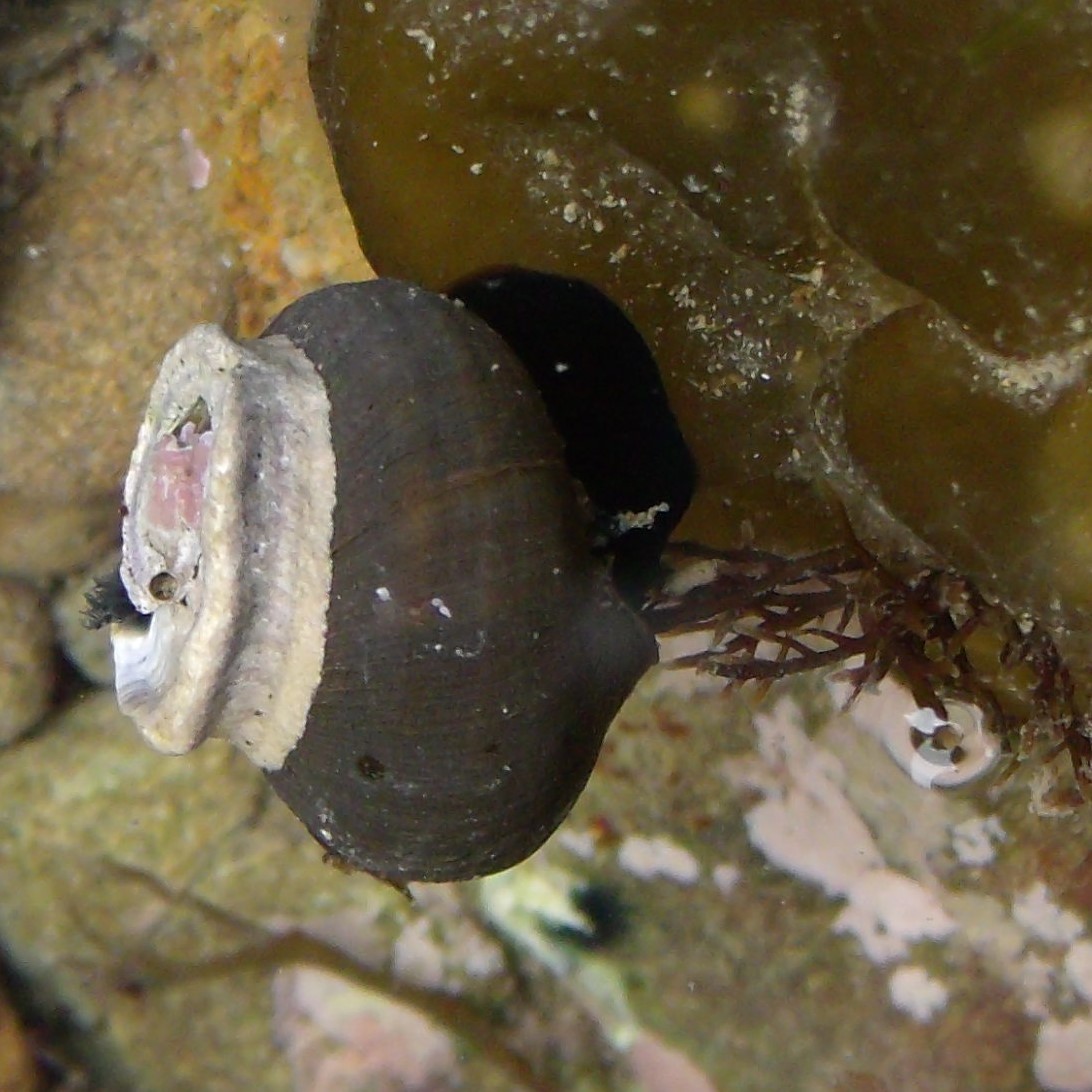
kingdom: Animalia
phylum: Mollusca
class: Gastropoda
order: Trochida
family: Turbinidae
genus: Lunella
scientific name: Lunella smaragda
